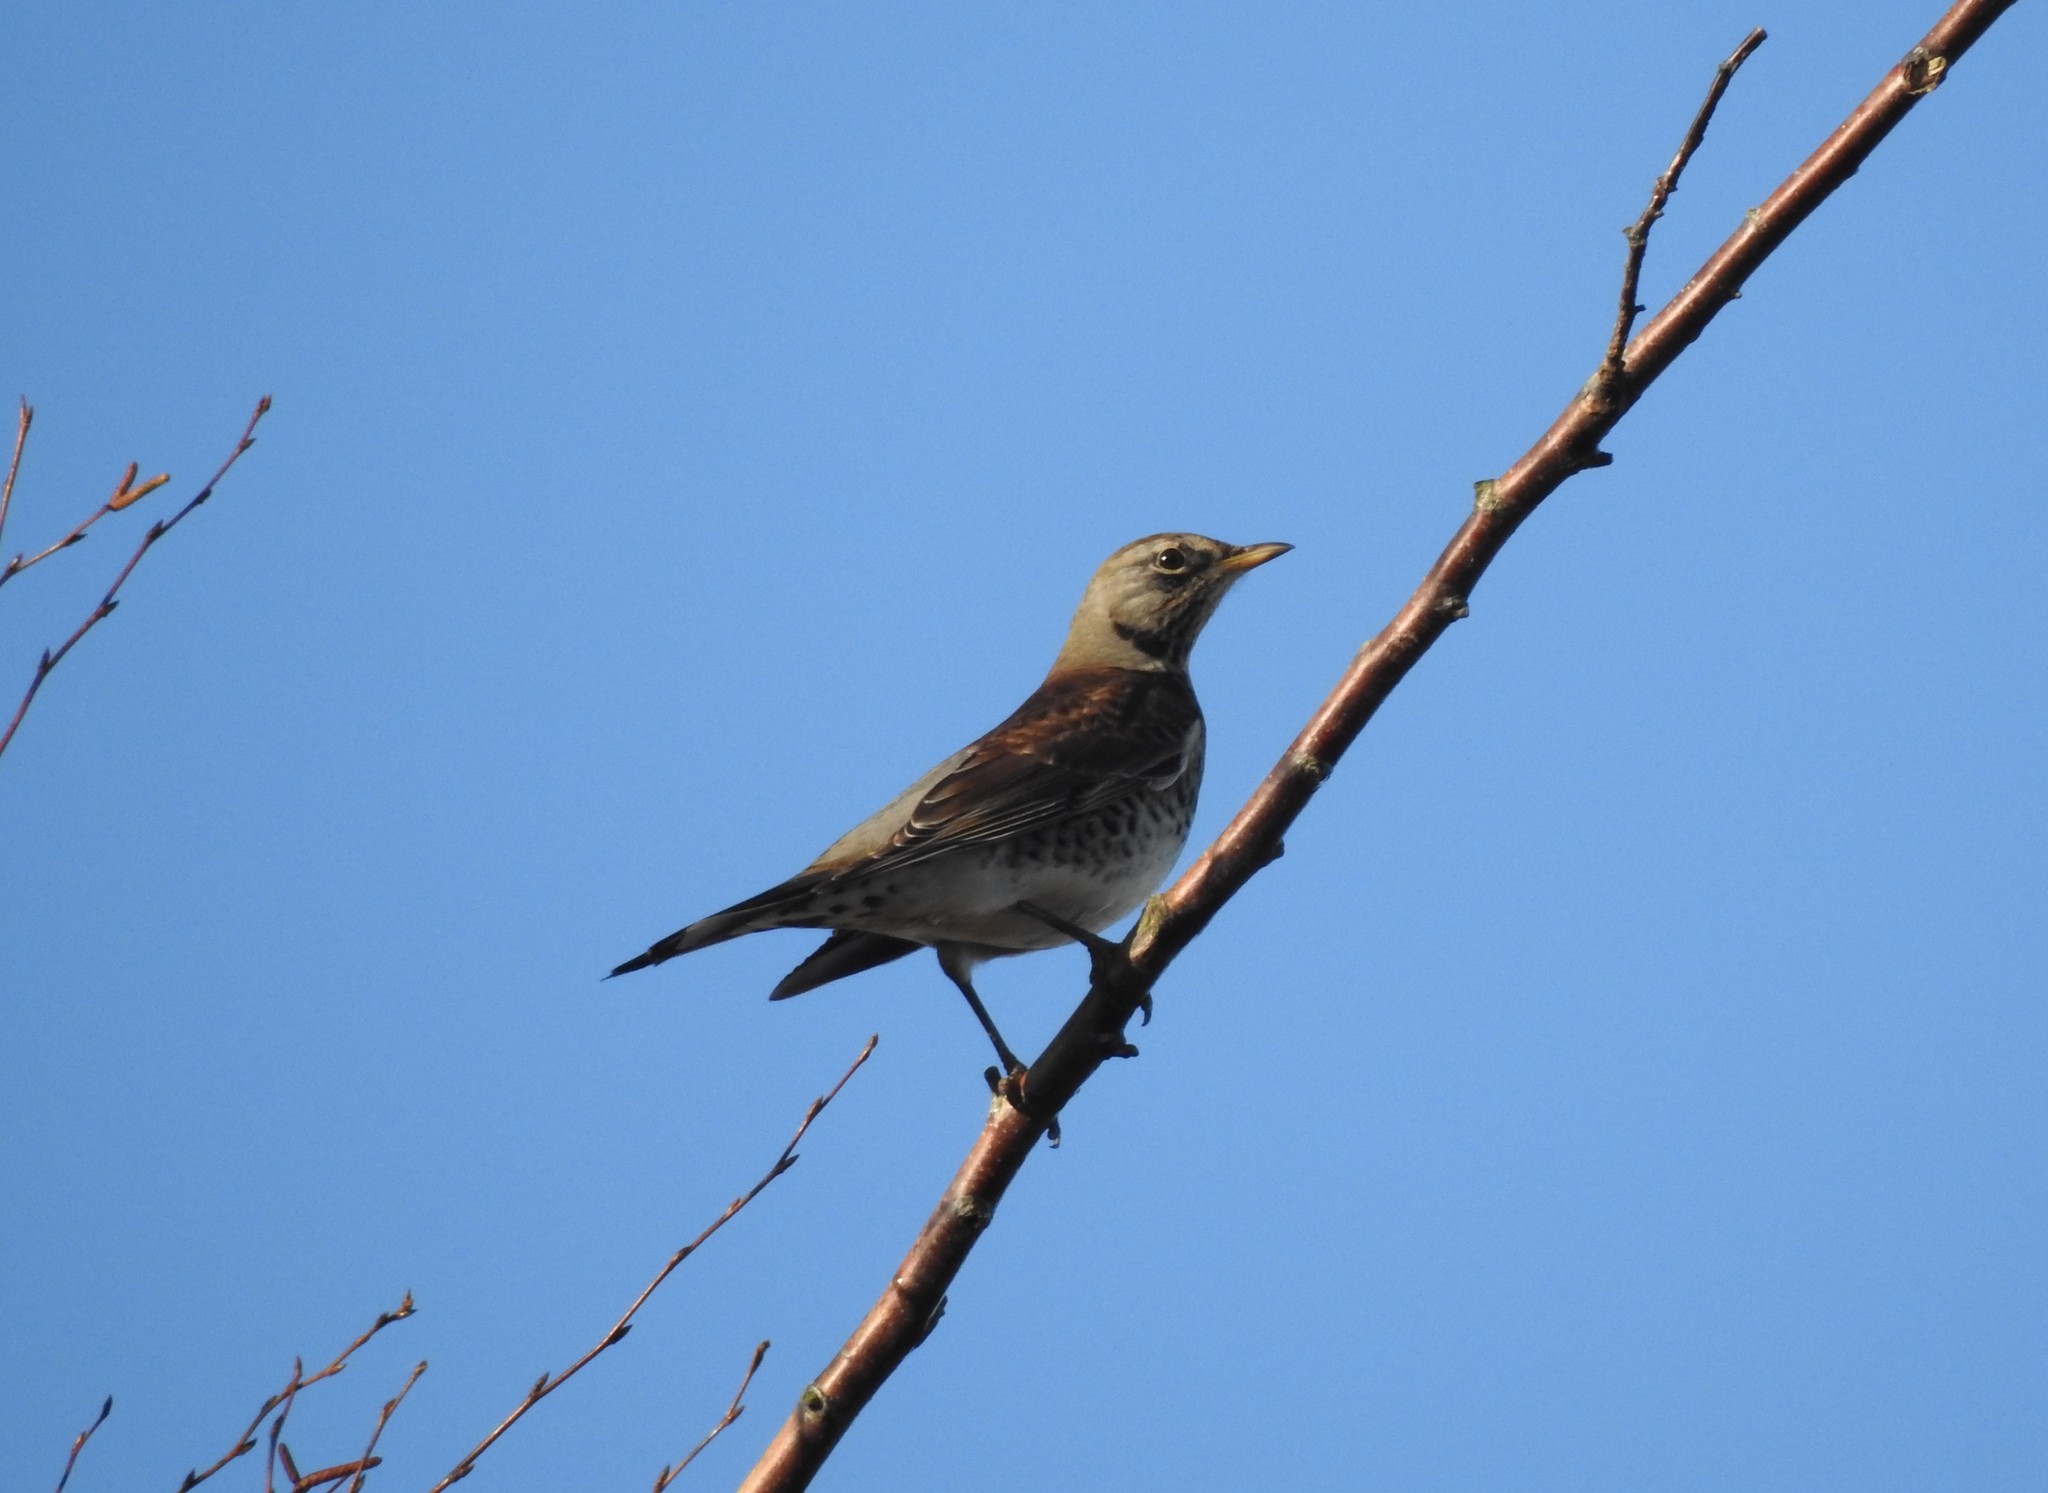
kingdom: Animalia
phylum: Chordata
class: Aves
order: Passeriformes
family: Turdidae
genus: Turdus
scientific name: Turdus pilaris
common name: Fieldfare
